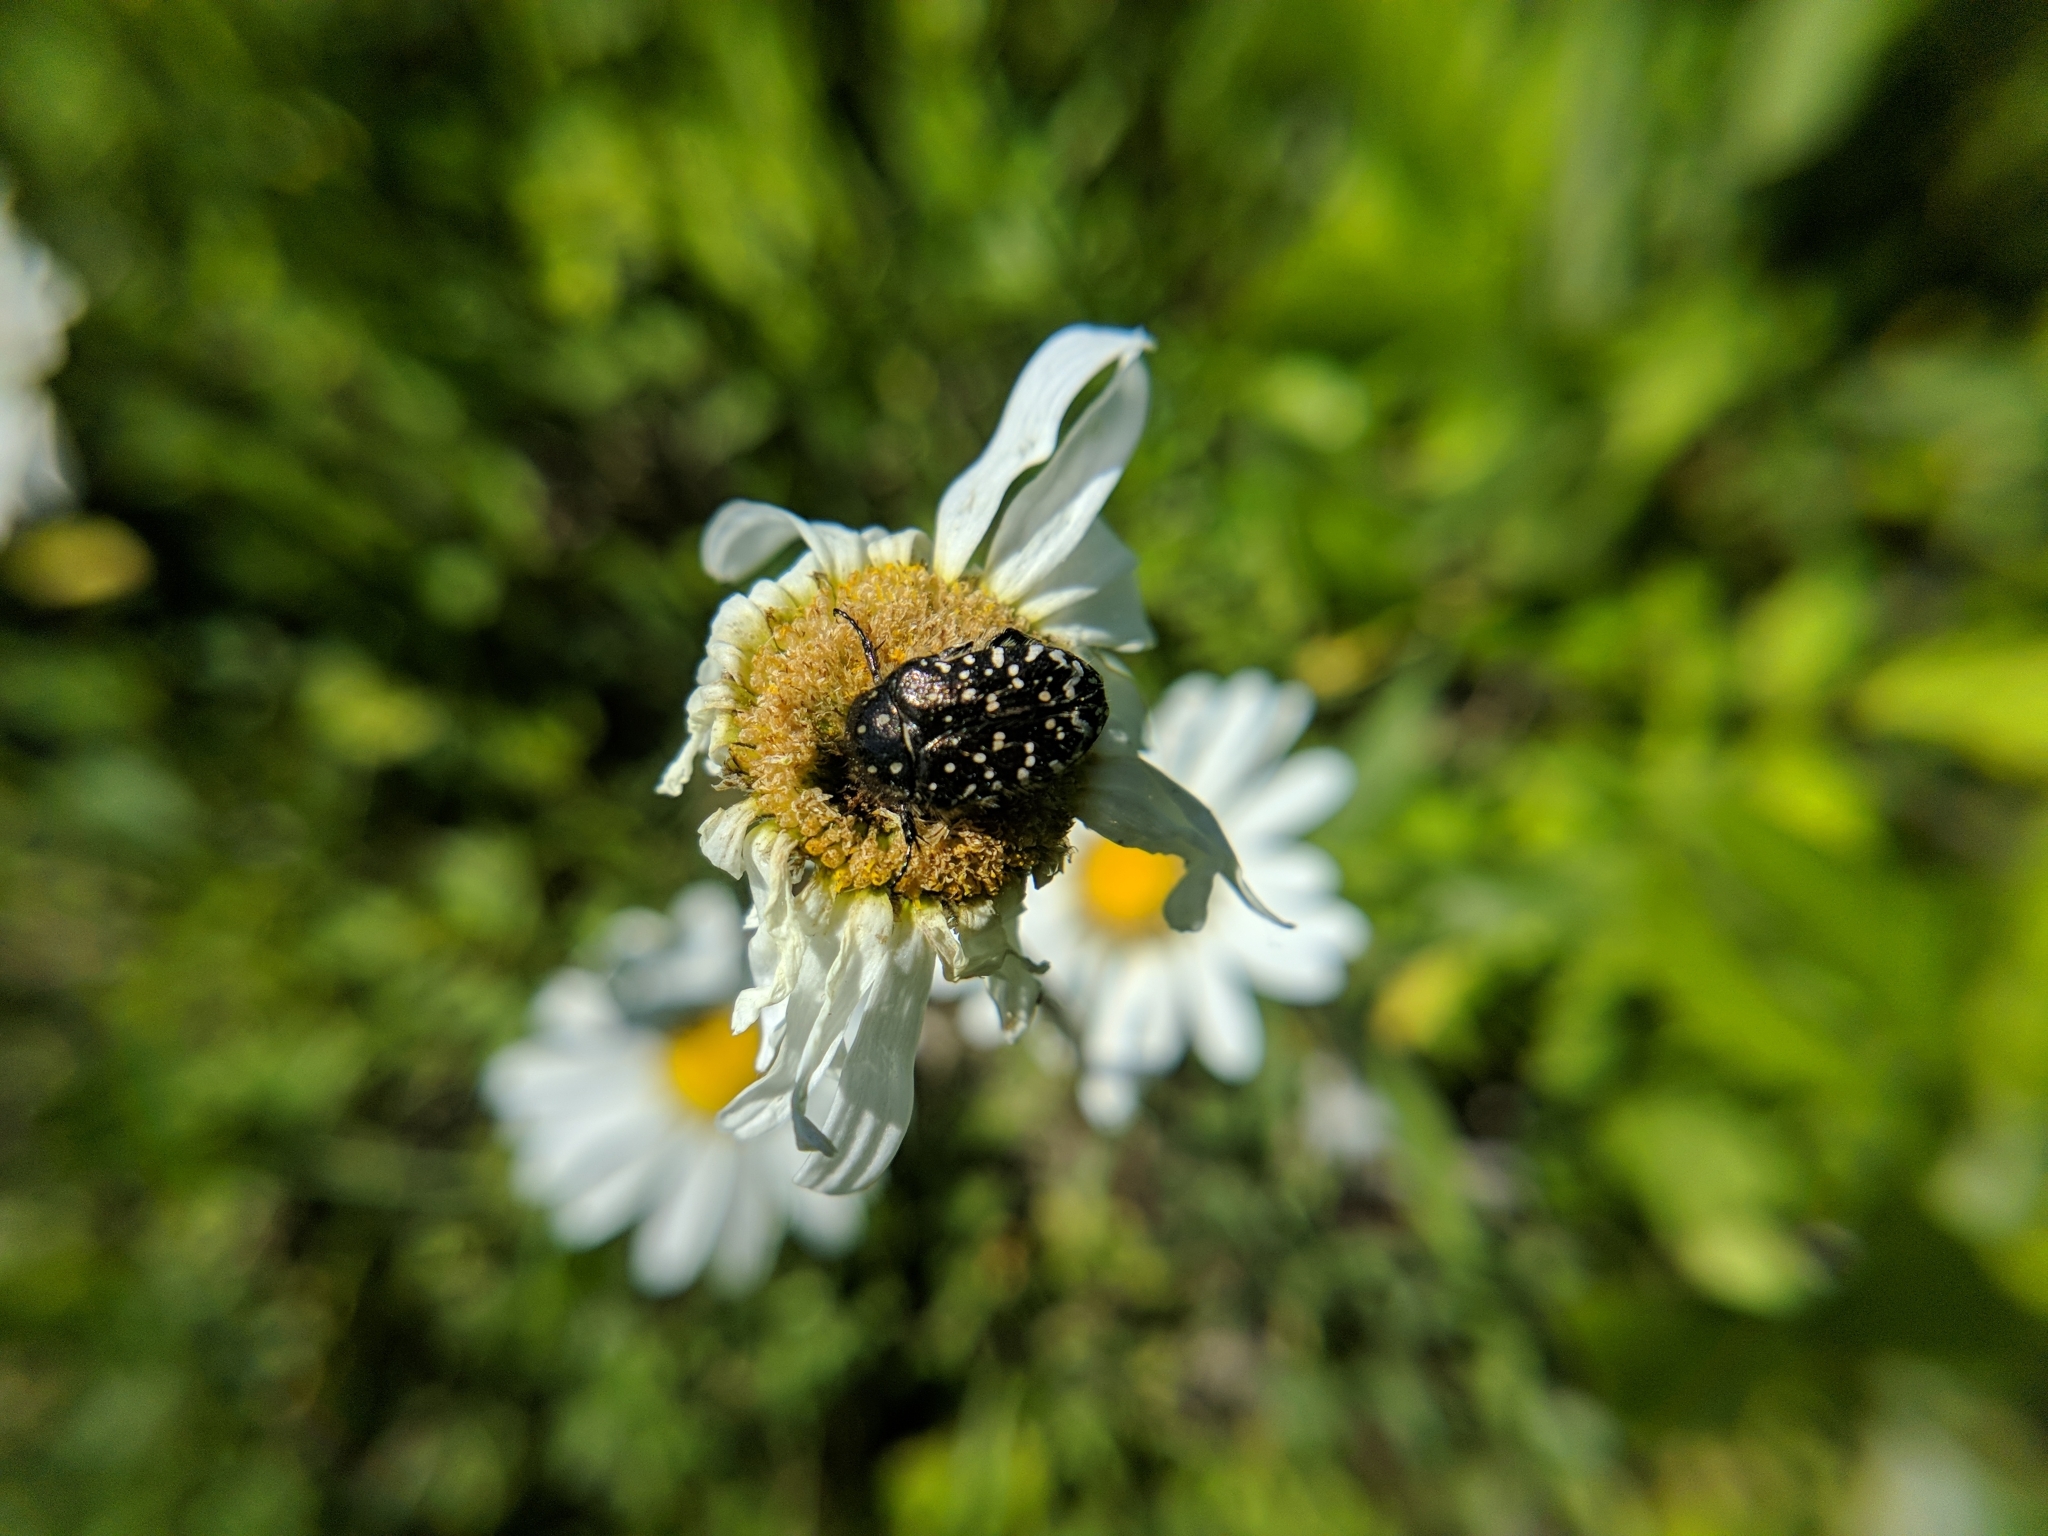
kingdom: Animalia
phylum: Arthropoda
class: Insecta
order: Coleoptera
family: Scarabaeidae
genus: Oxythyrea
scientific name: Oxythyrea funesta
